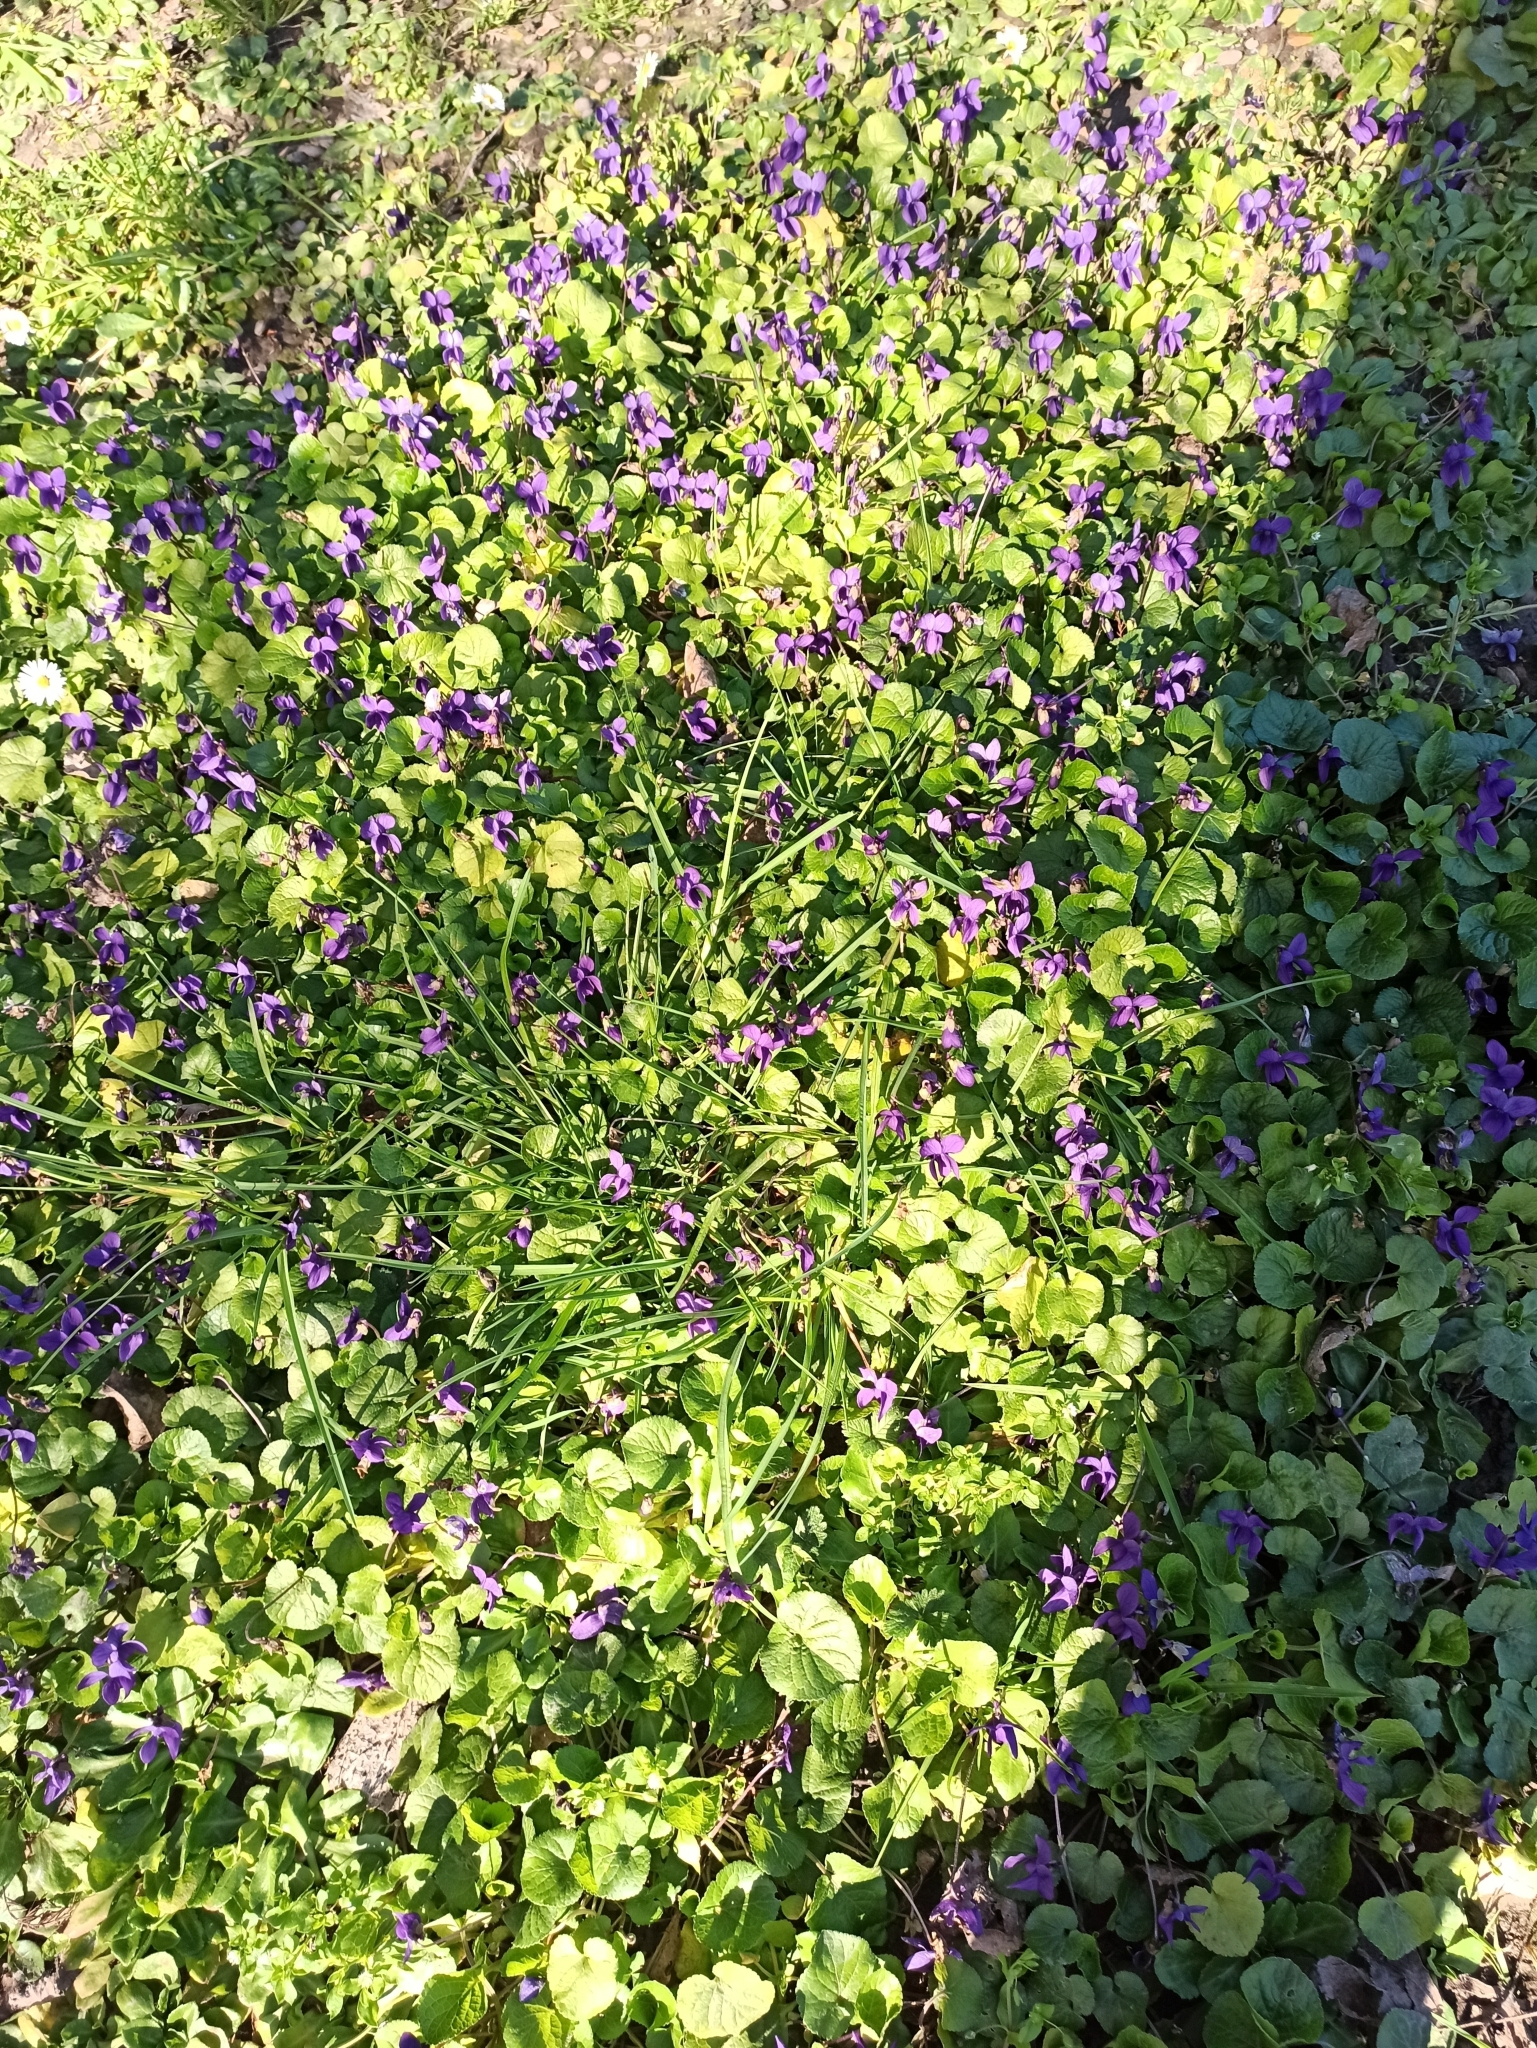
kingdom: Plantae
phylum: Tracheophyta
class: Magnoliopsida
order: Malpighiales
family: Violaceae
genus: Viola
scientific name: Viola odorata
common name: Sweet violet
